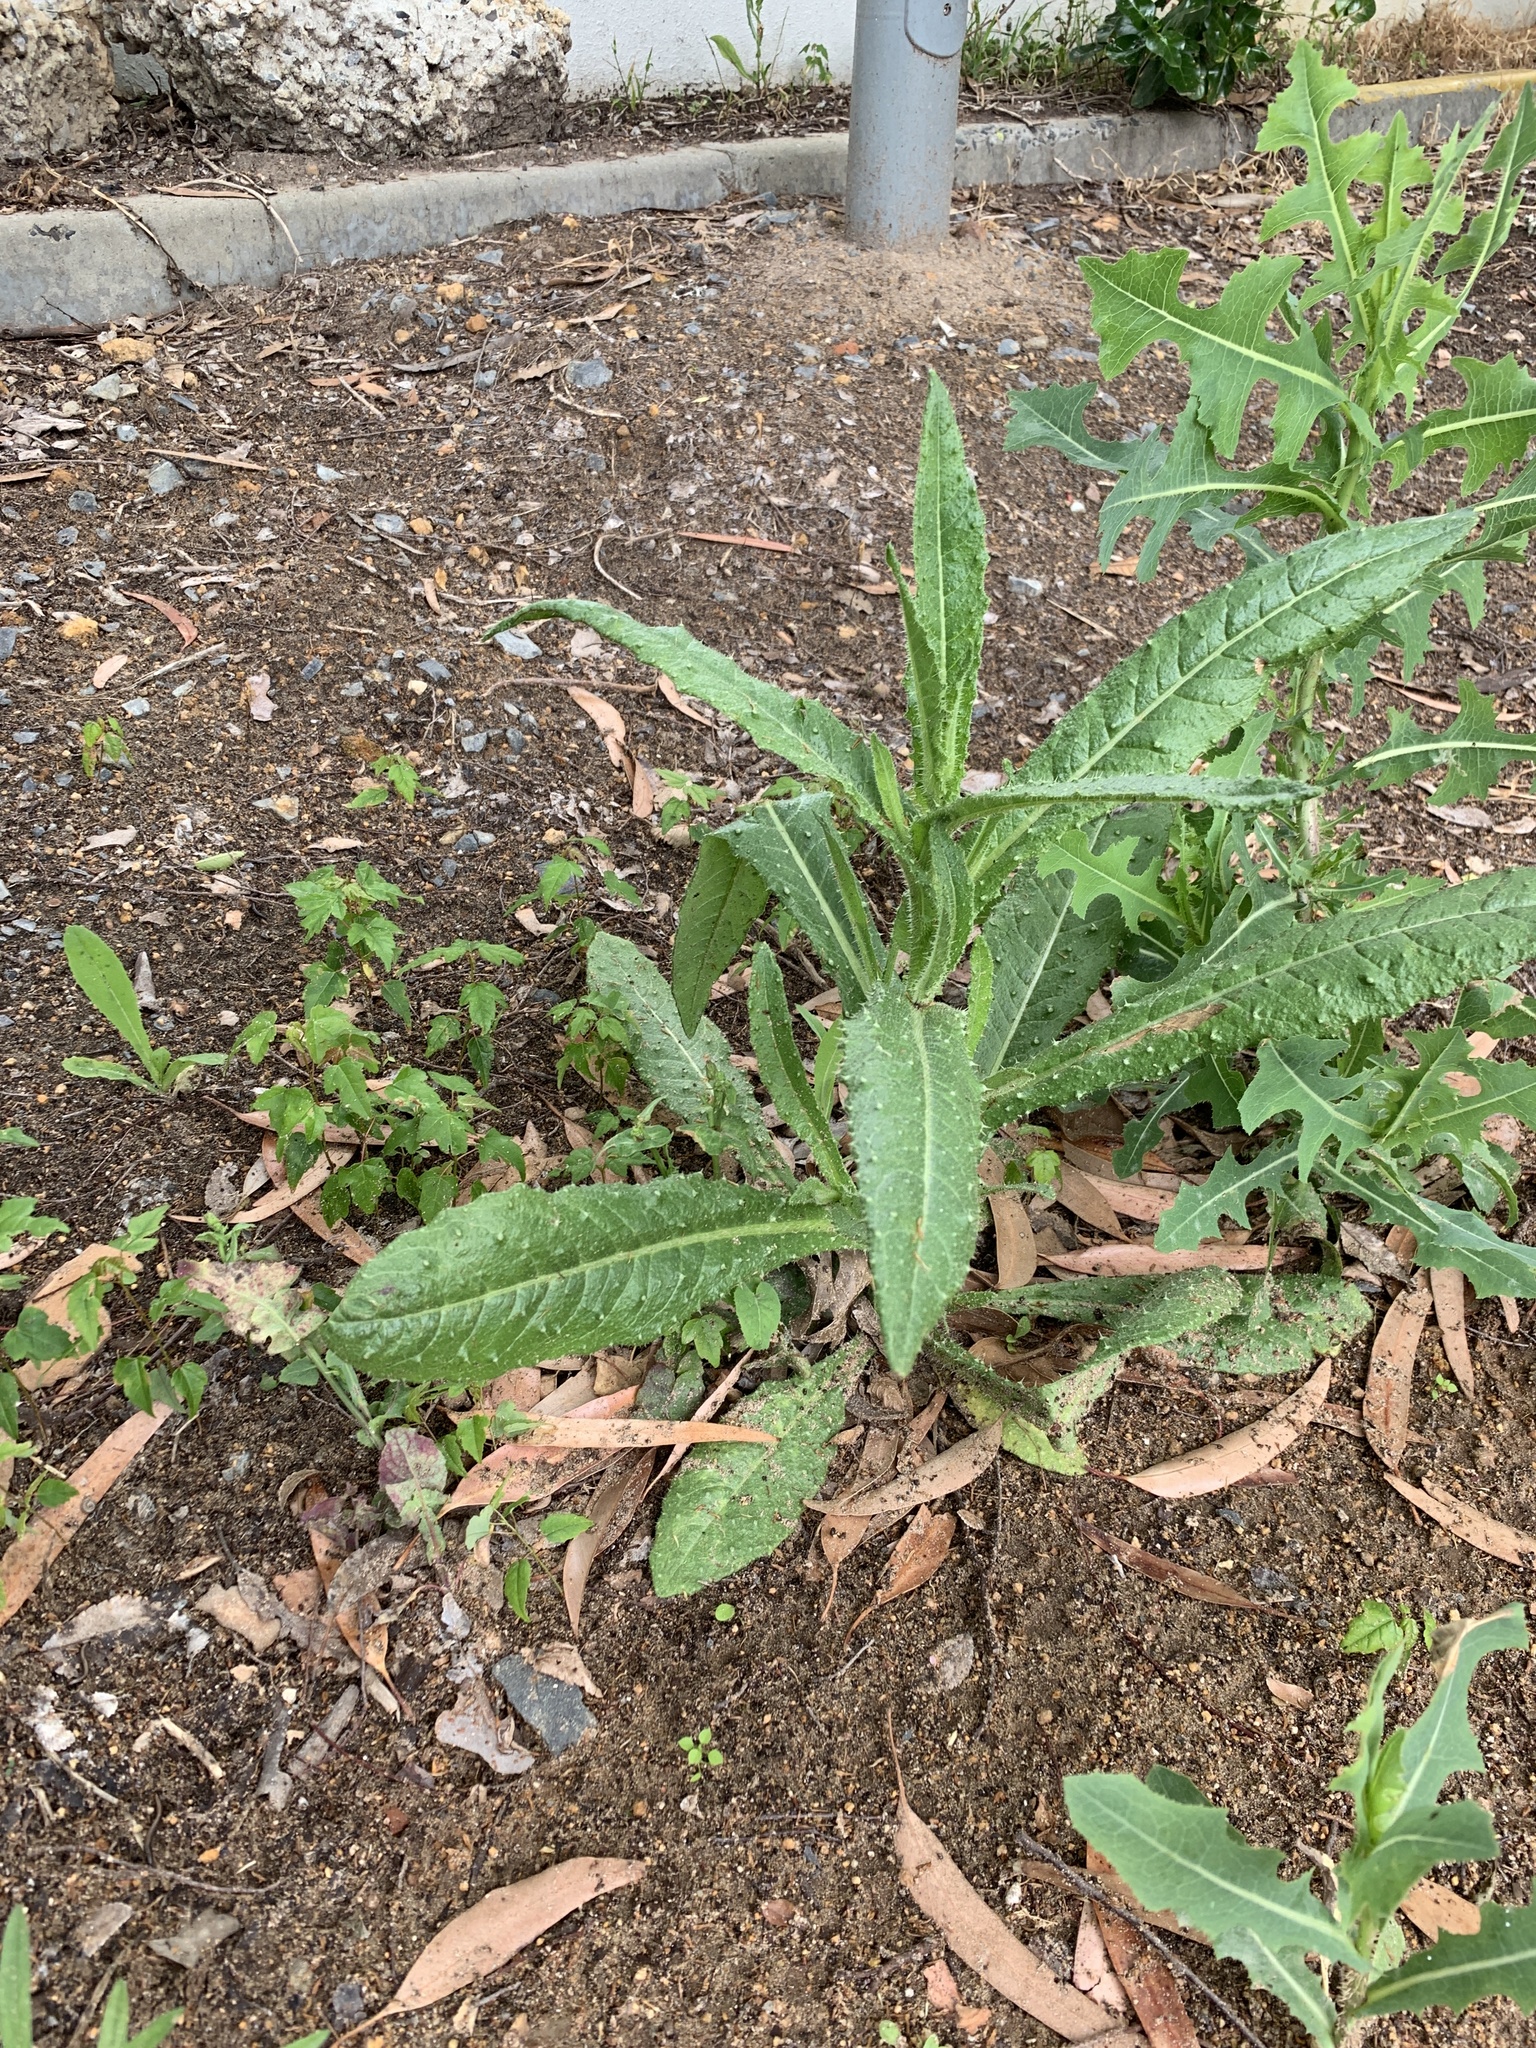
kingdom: Plantae
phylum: Tracheophyta
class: Magnoliopsida
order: Asterales
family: Asteraceae
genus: Helminthotheca
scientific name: Helminthotheca echioides
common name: Ox-tongue
